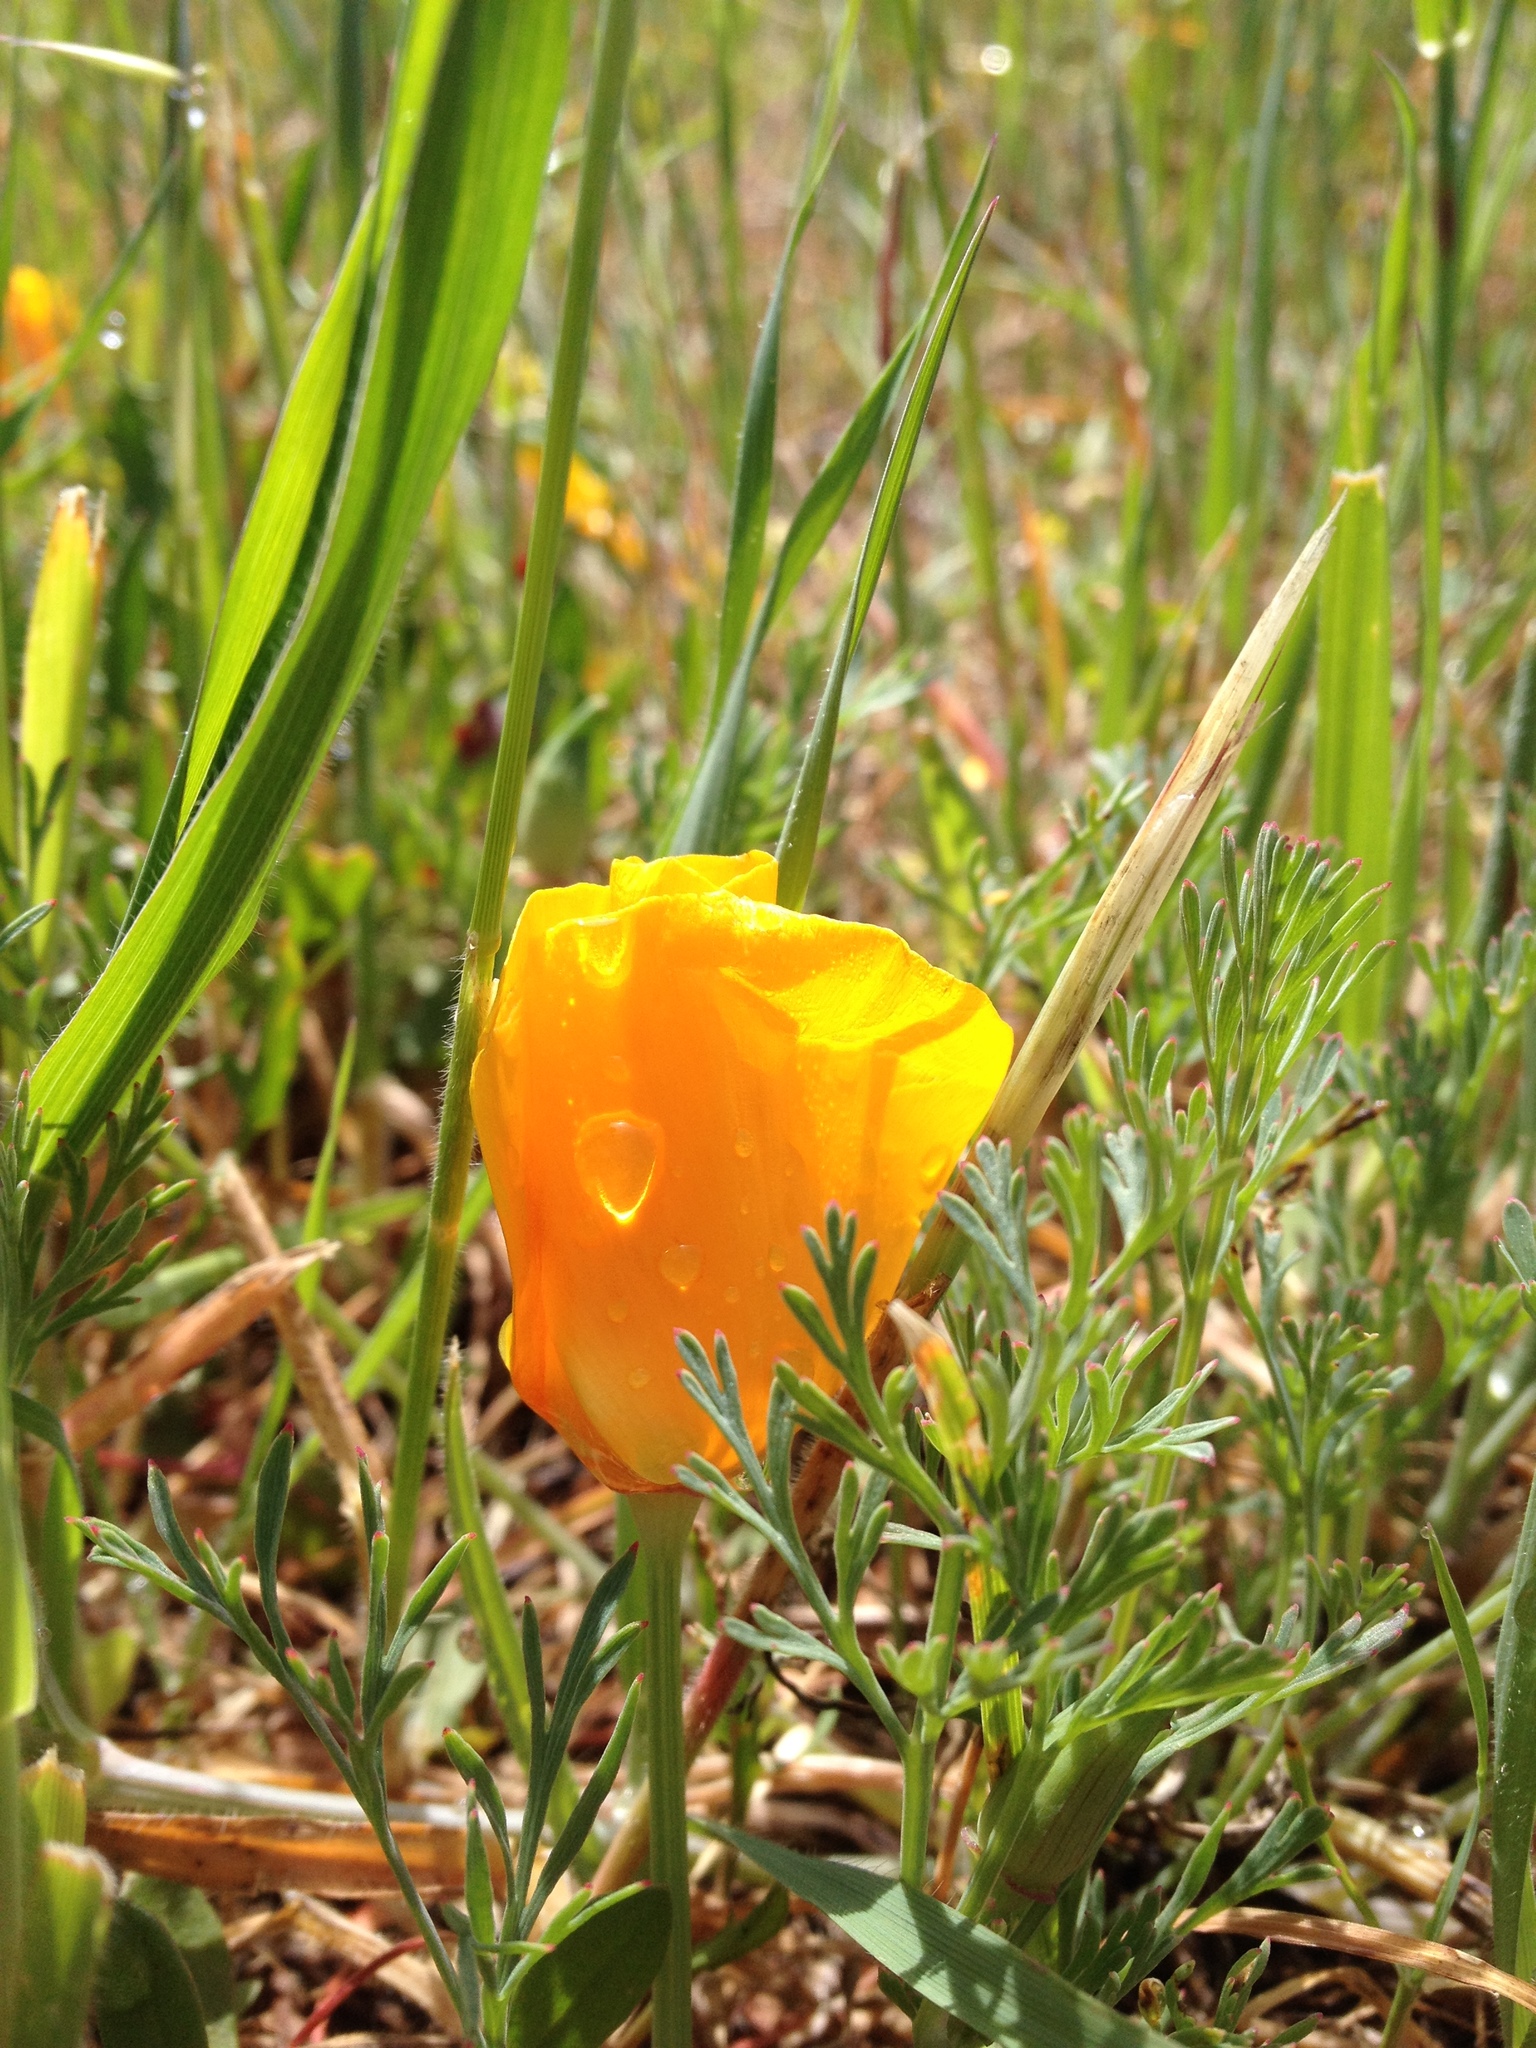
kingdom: Plantae
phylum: Tracheophyta
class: Magnoliopsida
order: Ranunculales
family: Papaveraceae
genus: Eschscholzia
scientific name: Eschscholzia californica
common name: California poppy
